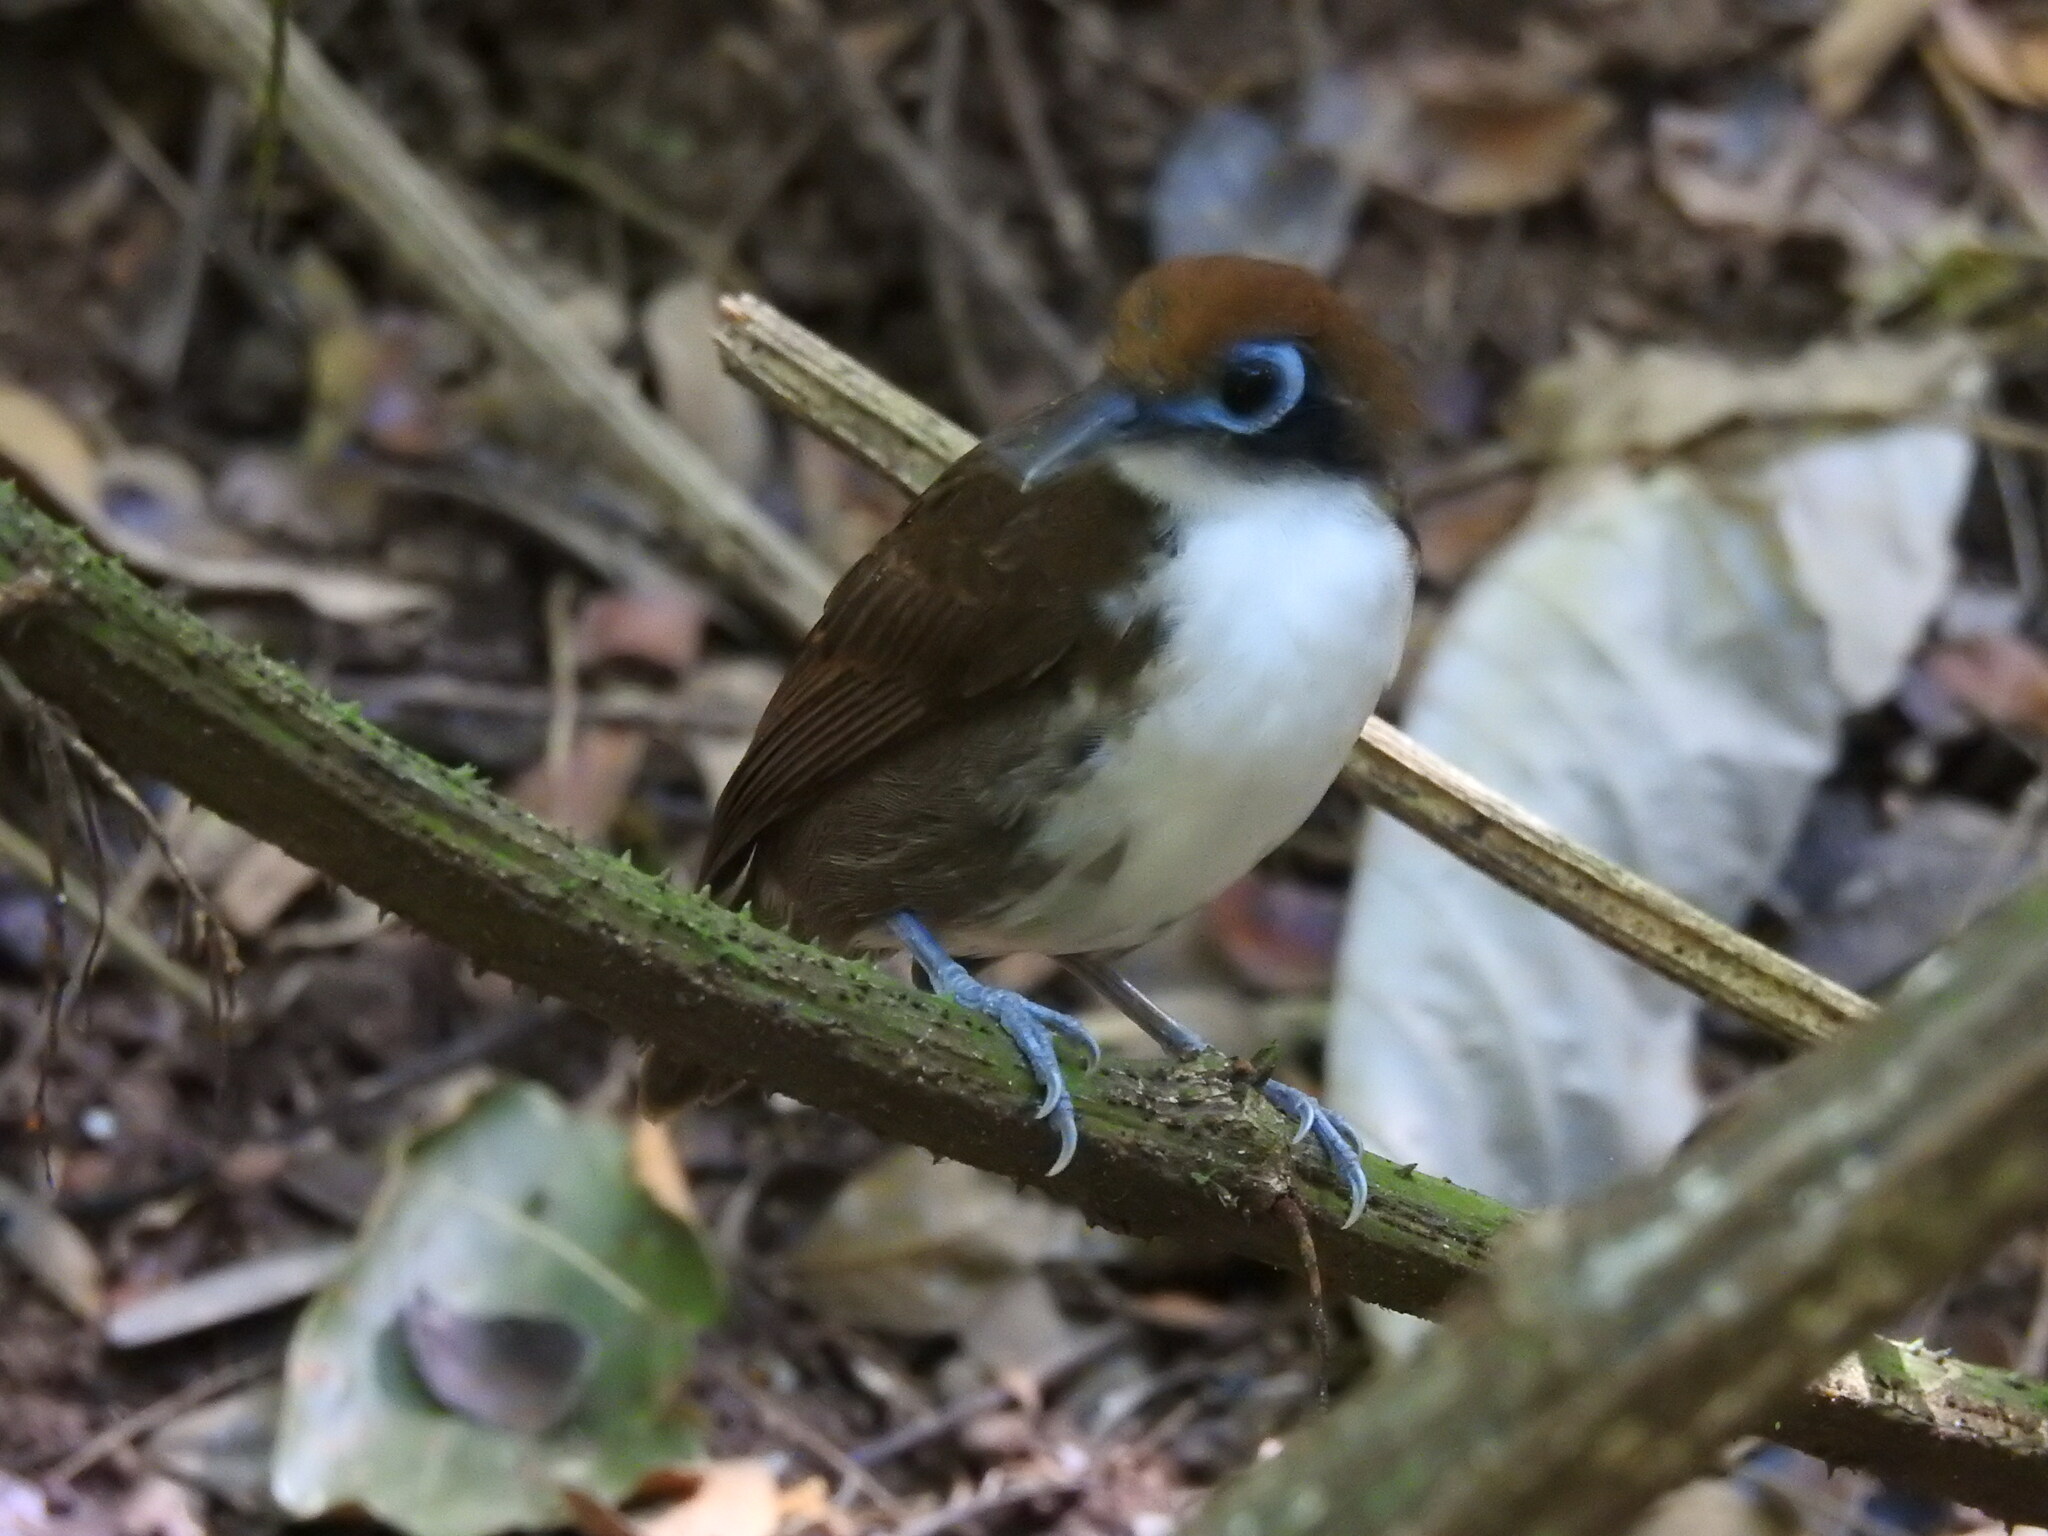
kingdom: Animalia
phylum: Chordata
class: Aves
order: Passeriformes
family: Thamnophilidae
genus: Gymnopithys
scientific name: Gymnopithys leucaspis
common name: White-cheeked antbird
